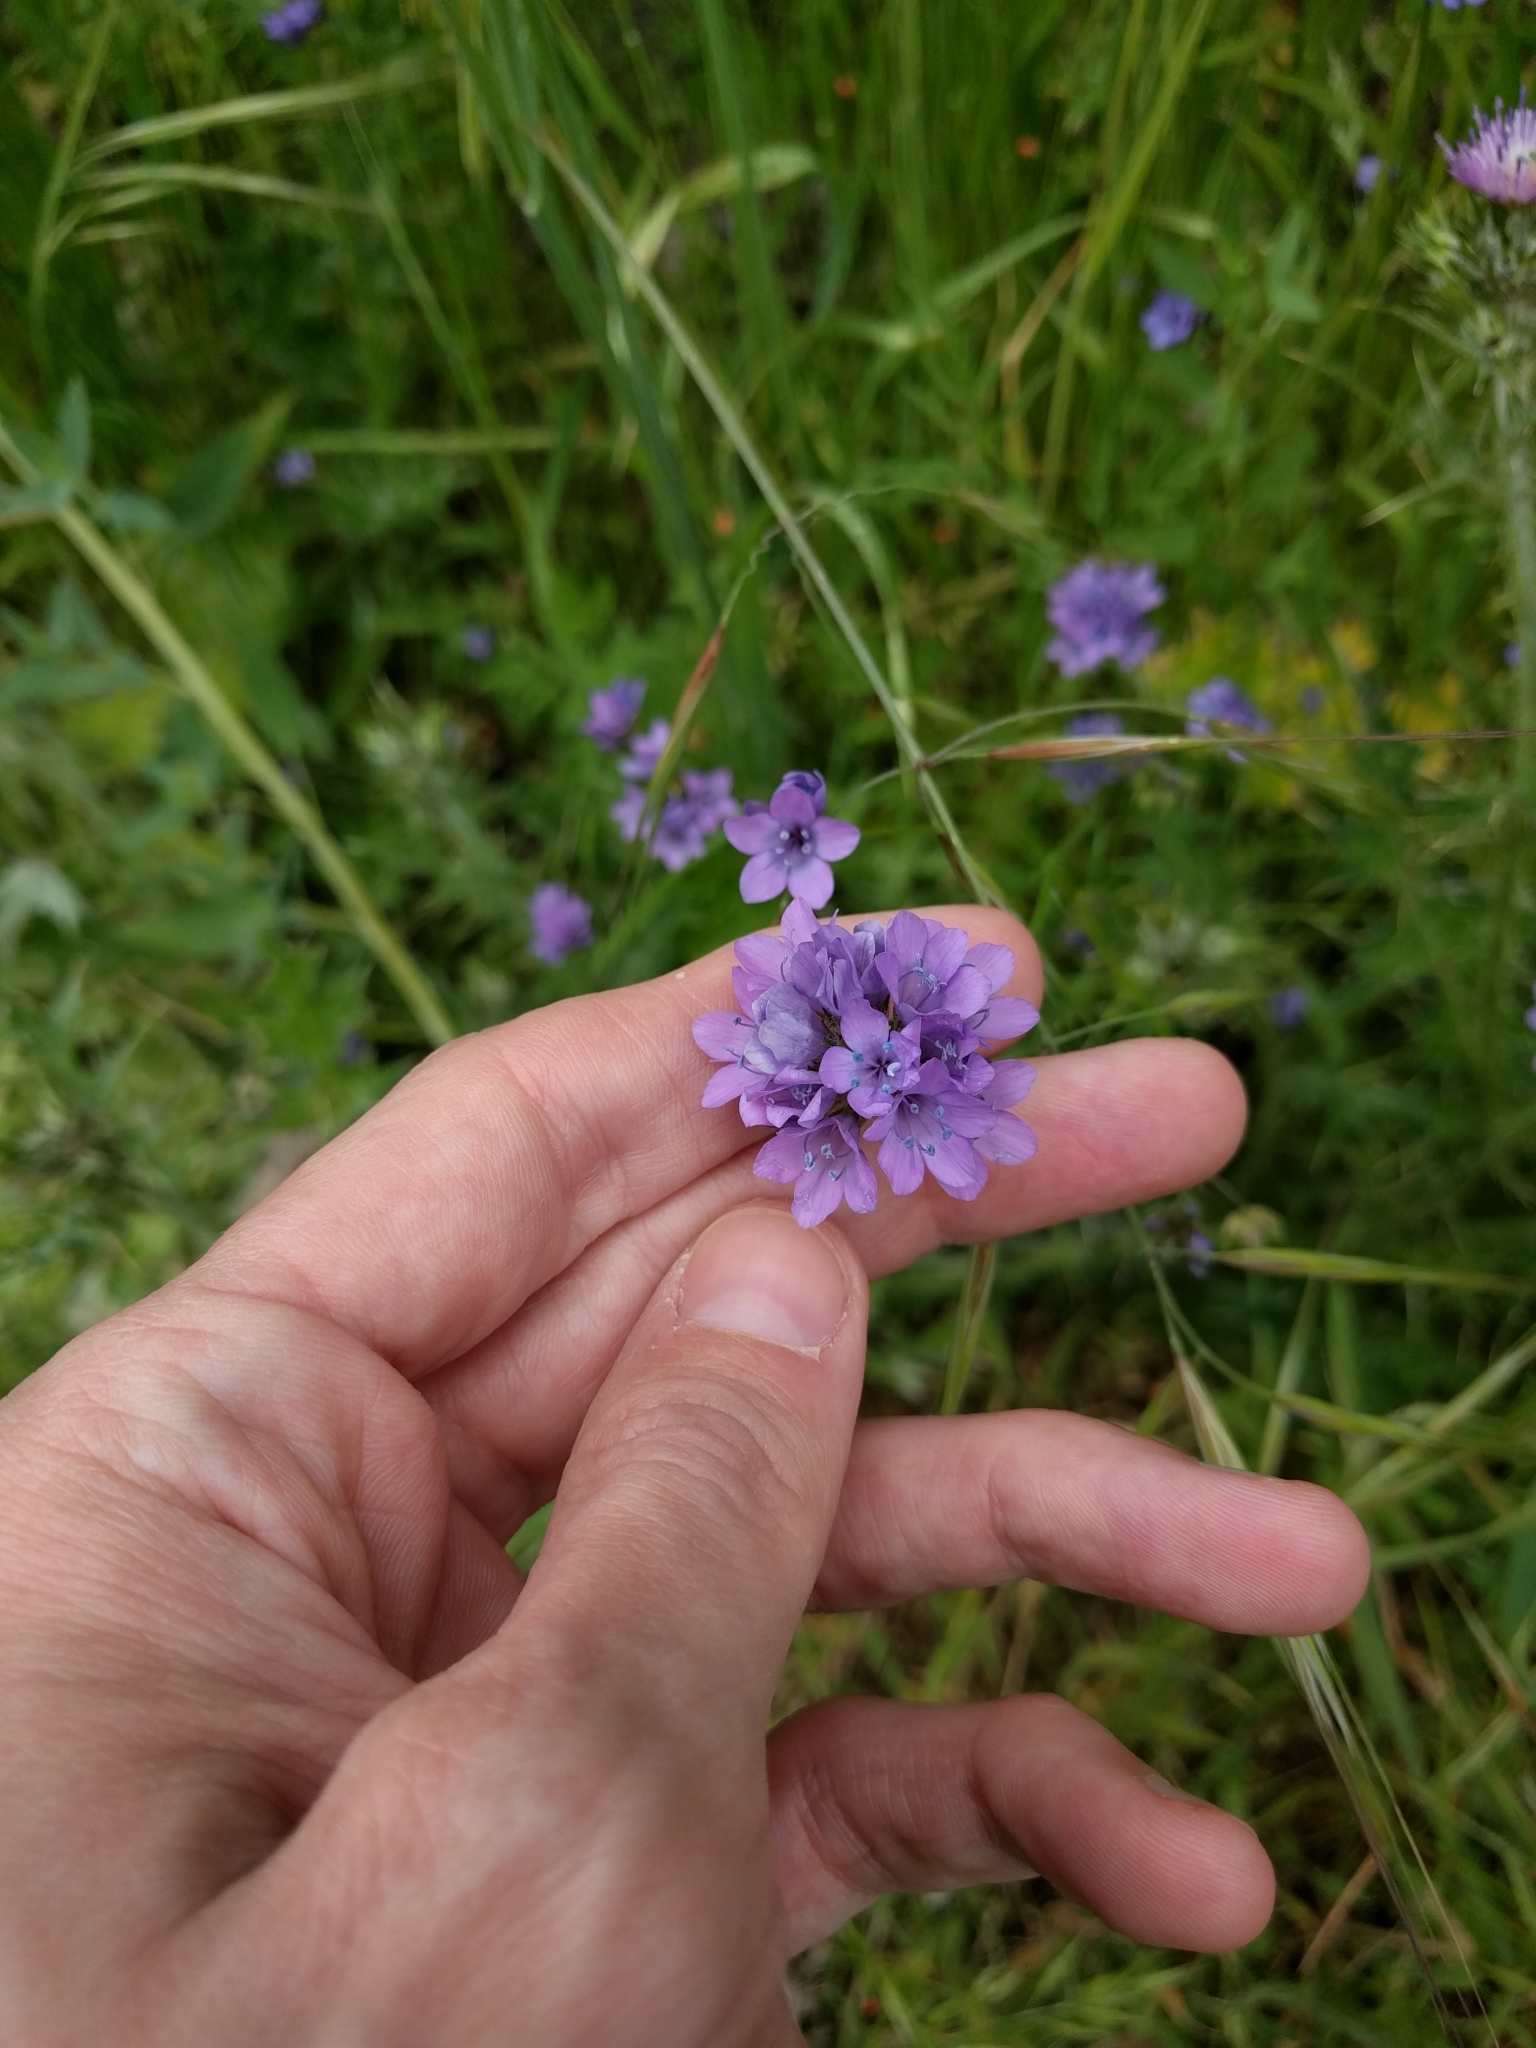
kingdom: Plantae
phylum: Tracheophyta
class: Magnoliopsida
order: Ericales
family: Polemoniaceae
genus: Gilia
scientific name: Gilia achilleifolia
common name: California gily-flower
